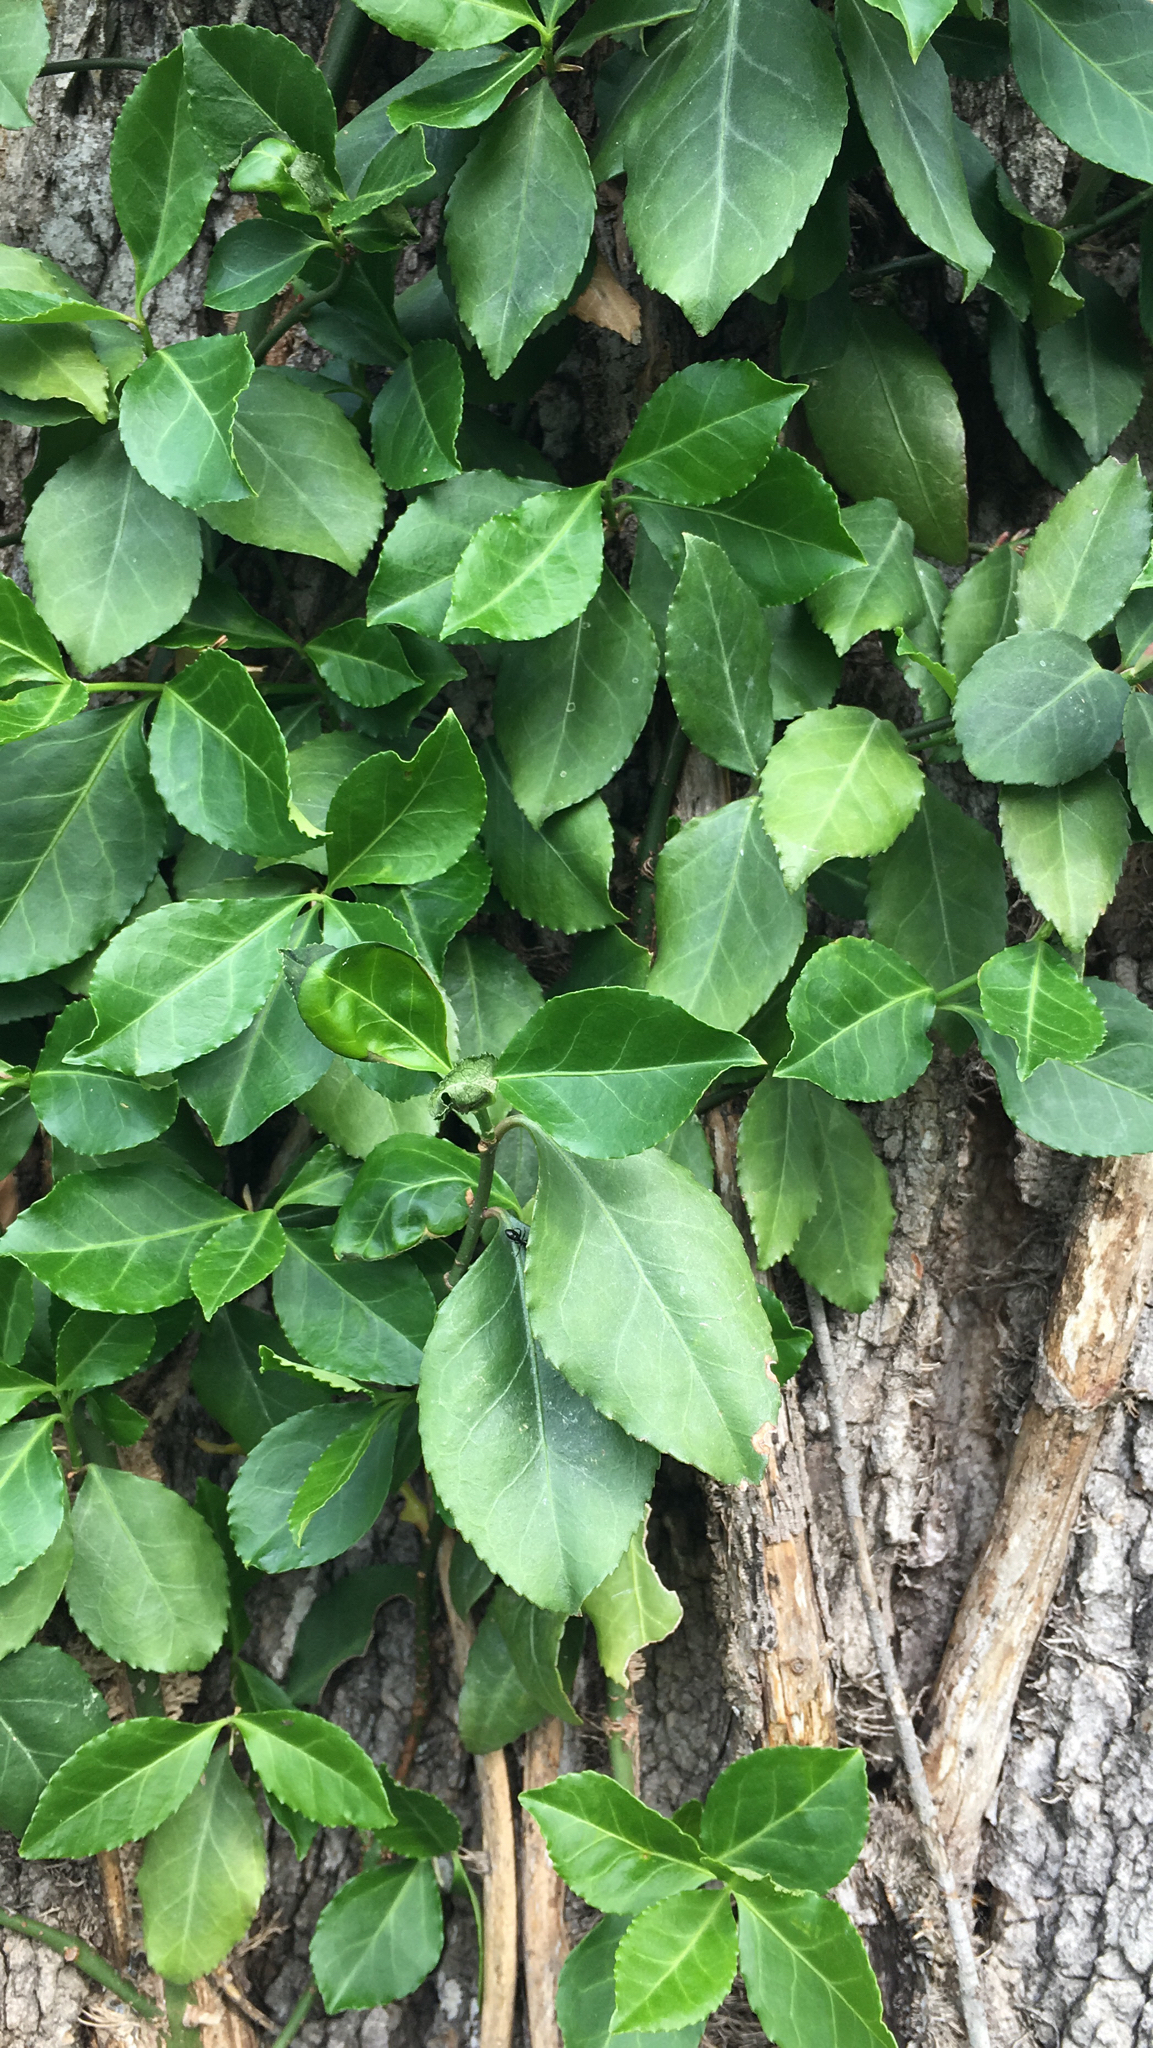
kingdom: Plantae
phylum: Tracheophyta
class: Magnoliopsida
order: Celastrales
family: Celastraceae
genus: Euonymus
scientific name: Euonymus fortunei
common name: Climbing euonymus
